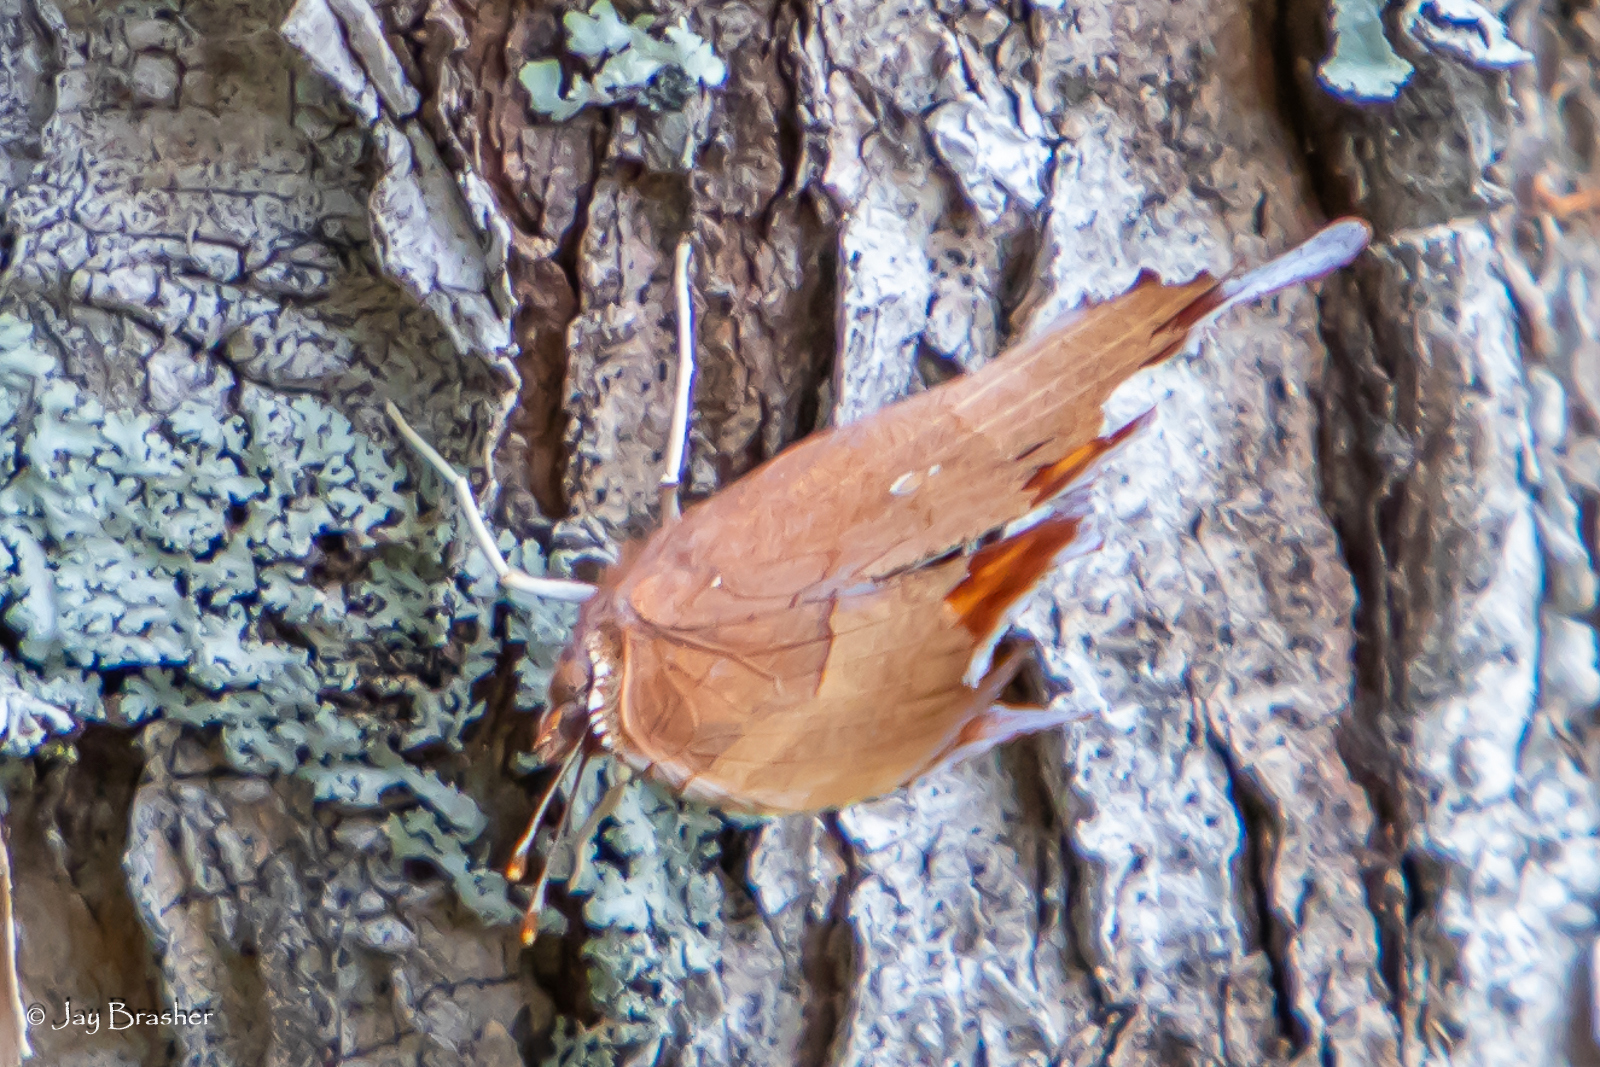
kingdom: Animalia
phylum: Arthropoda
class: Insecta
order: Lepidoptera
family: Nymphalidae
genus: Polygonia
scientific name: Polygonia interrogationis
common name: Question mark
